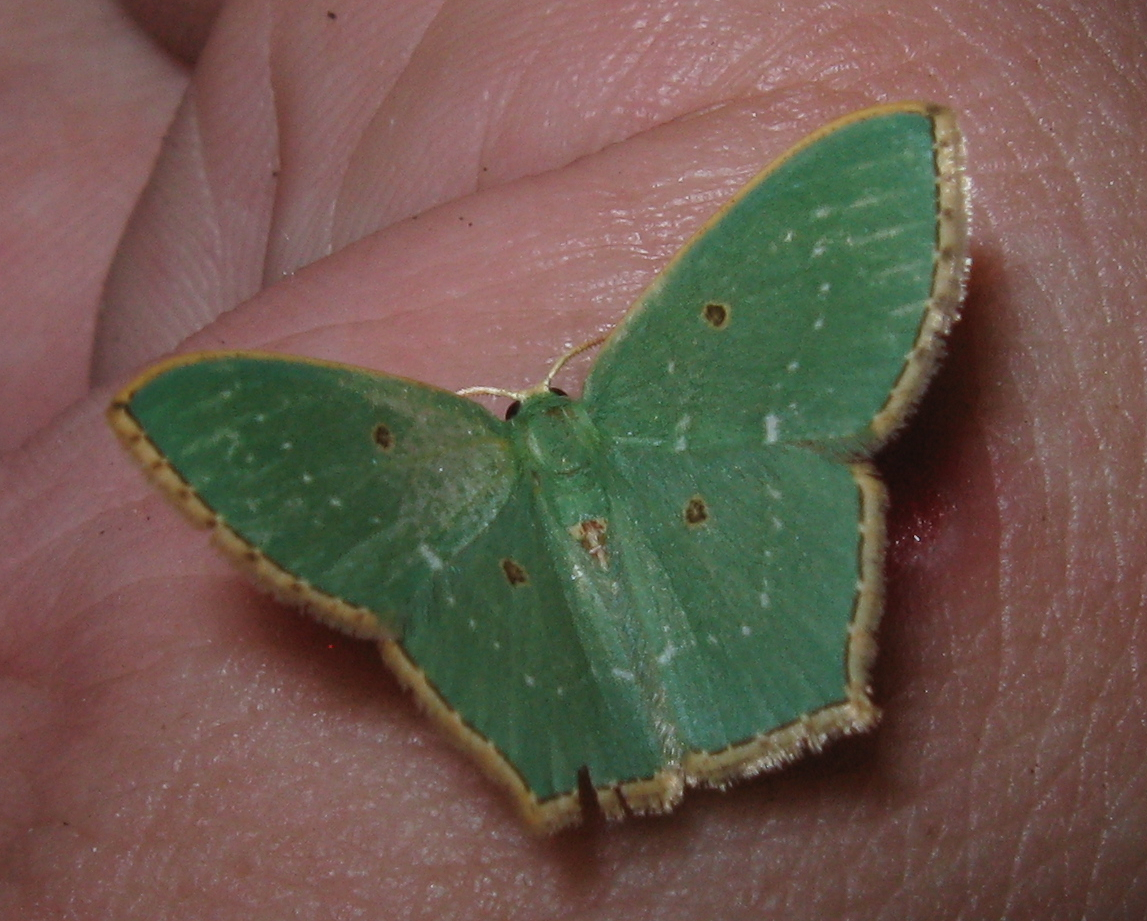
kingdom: Animalia
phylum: Arthropoda
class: Insecta
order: Lepidoptera
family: Geometridae
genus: Cyclothea
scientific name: Cyclothea disjuncta
